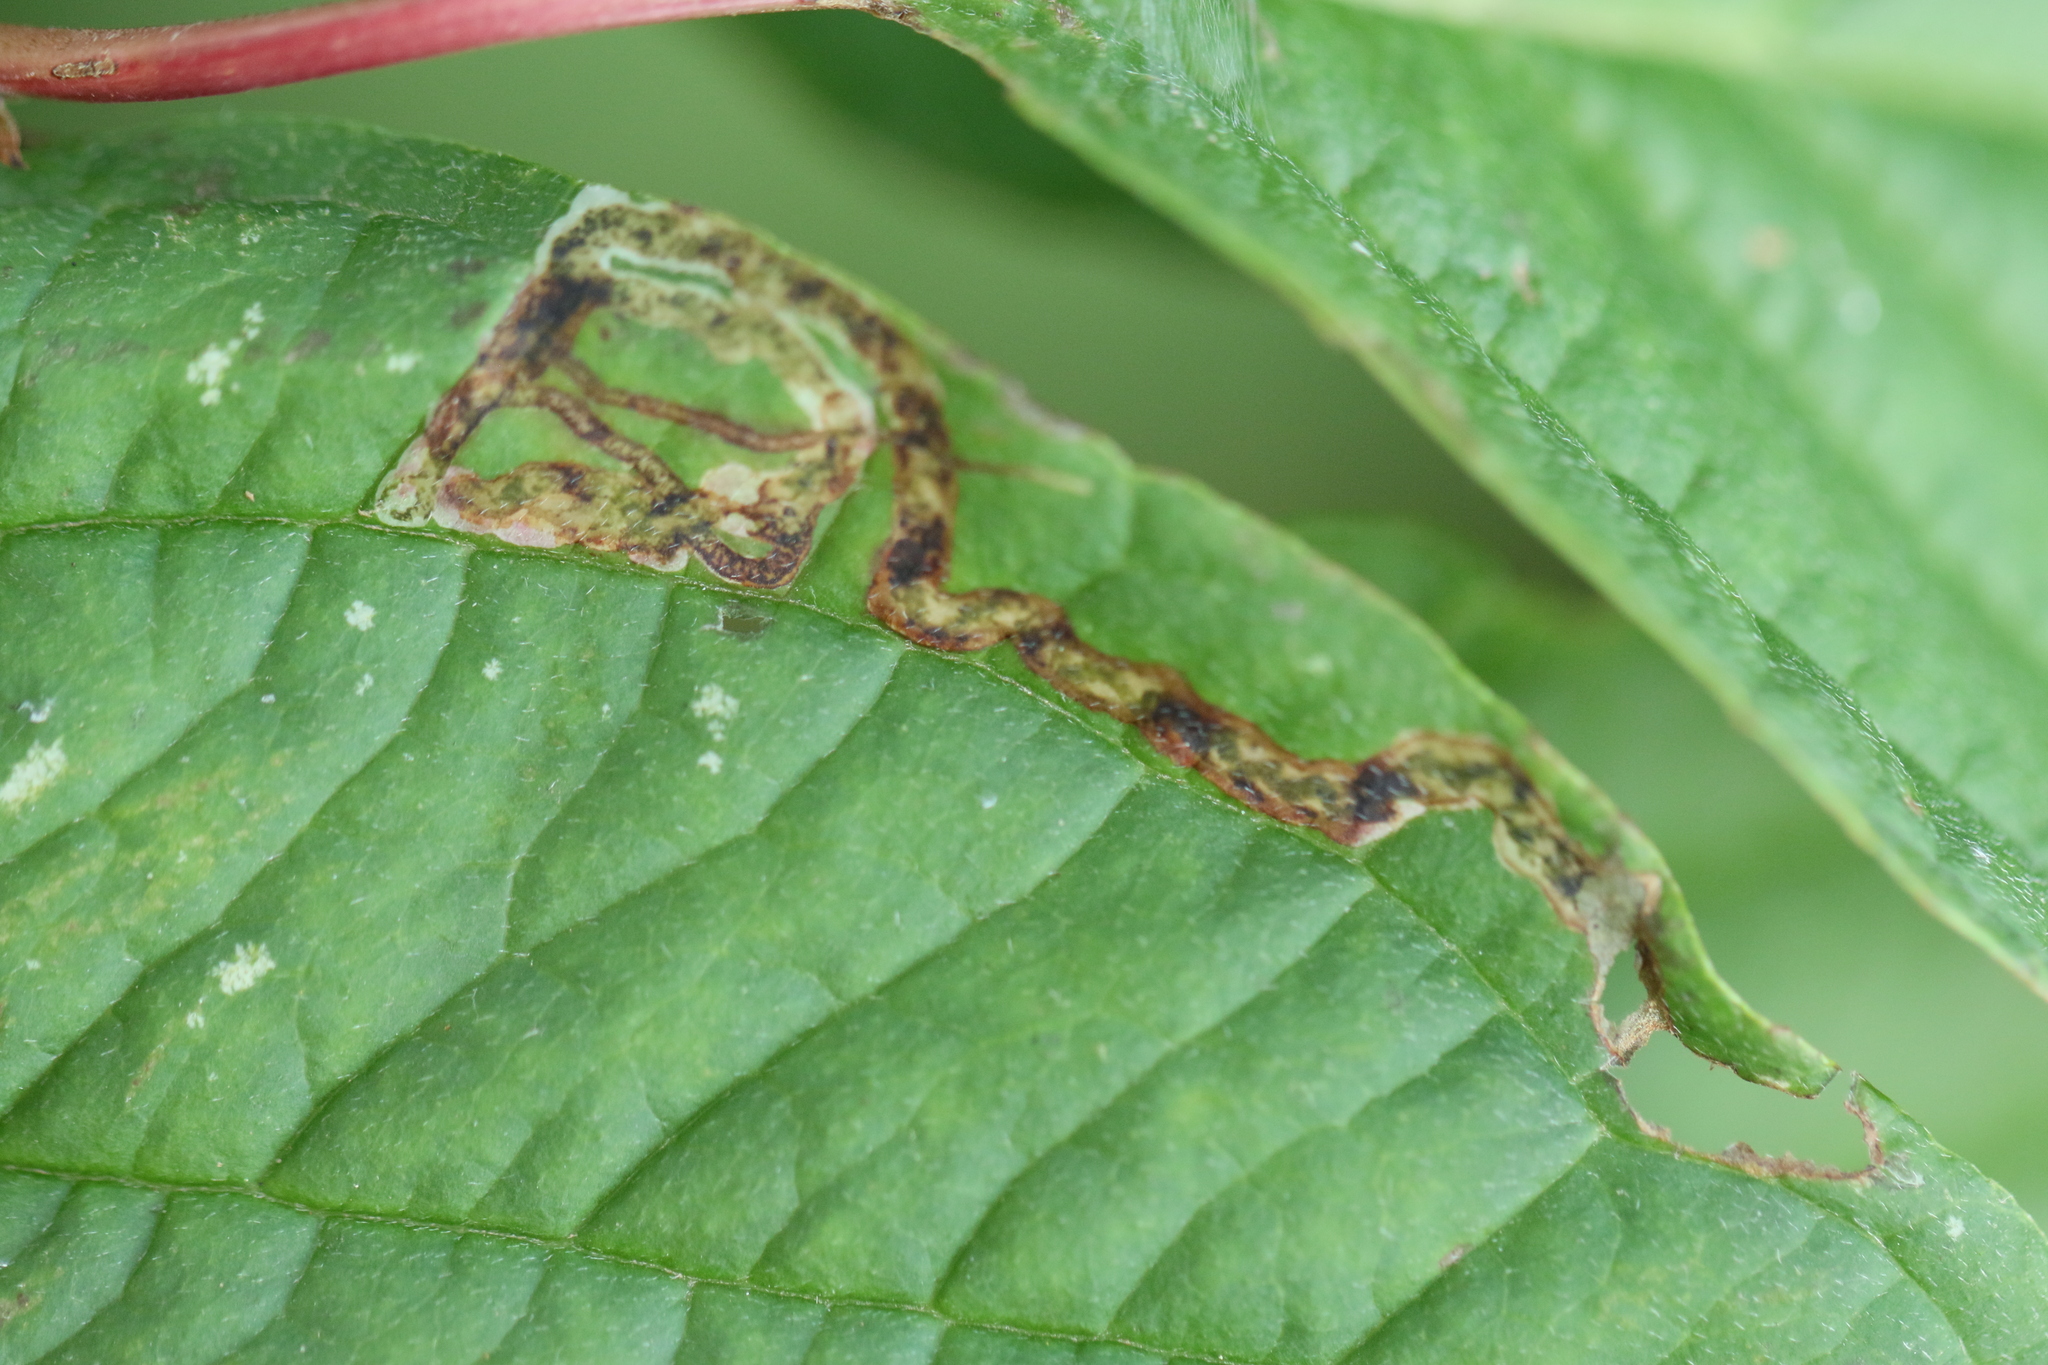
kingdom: Animalia
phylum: Arthropoda
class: Insecta
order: Diptera
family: Agromyzidae
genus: Phytomyza
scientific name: Phytomyza agromyzina
